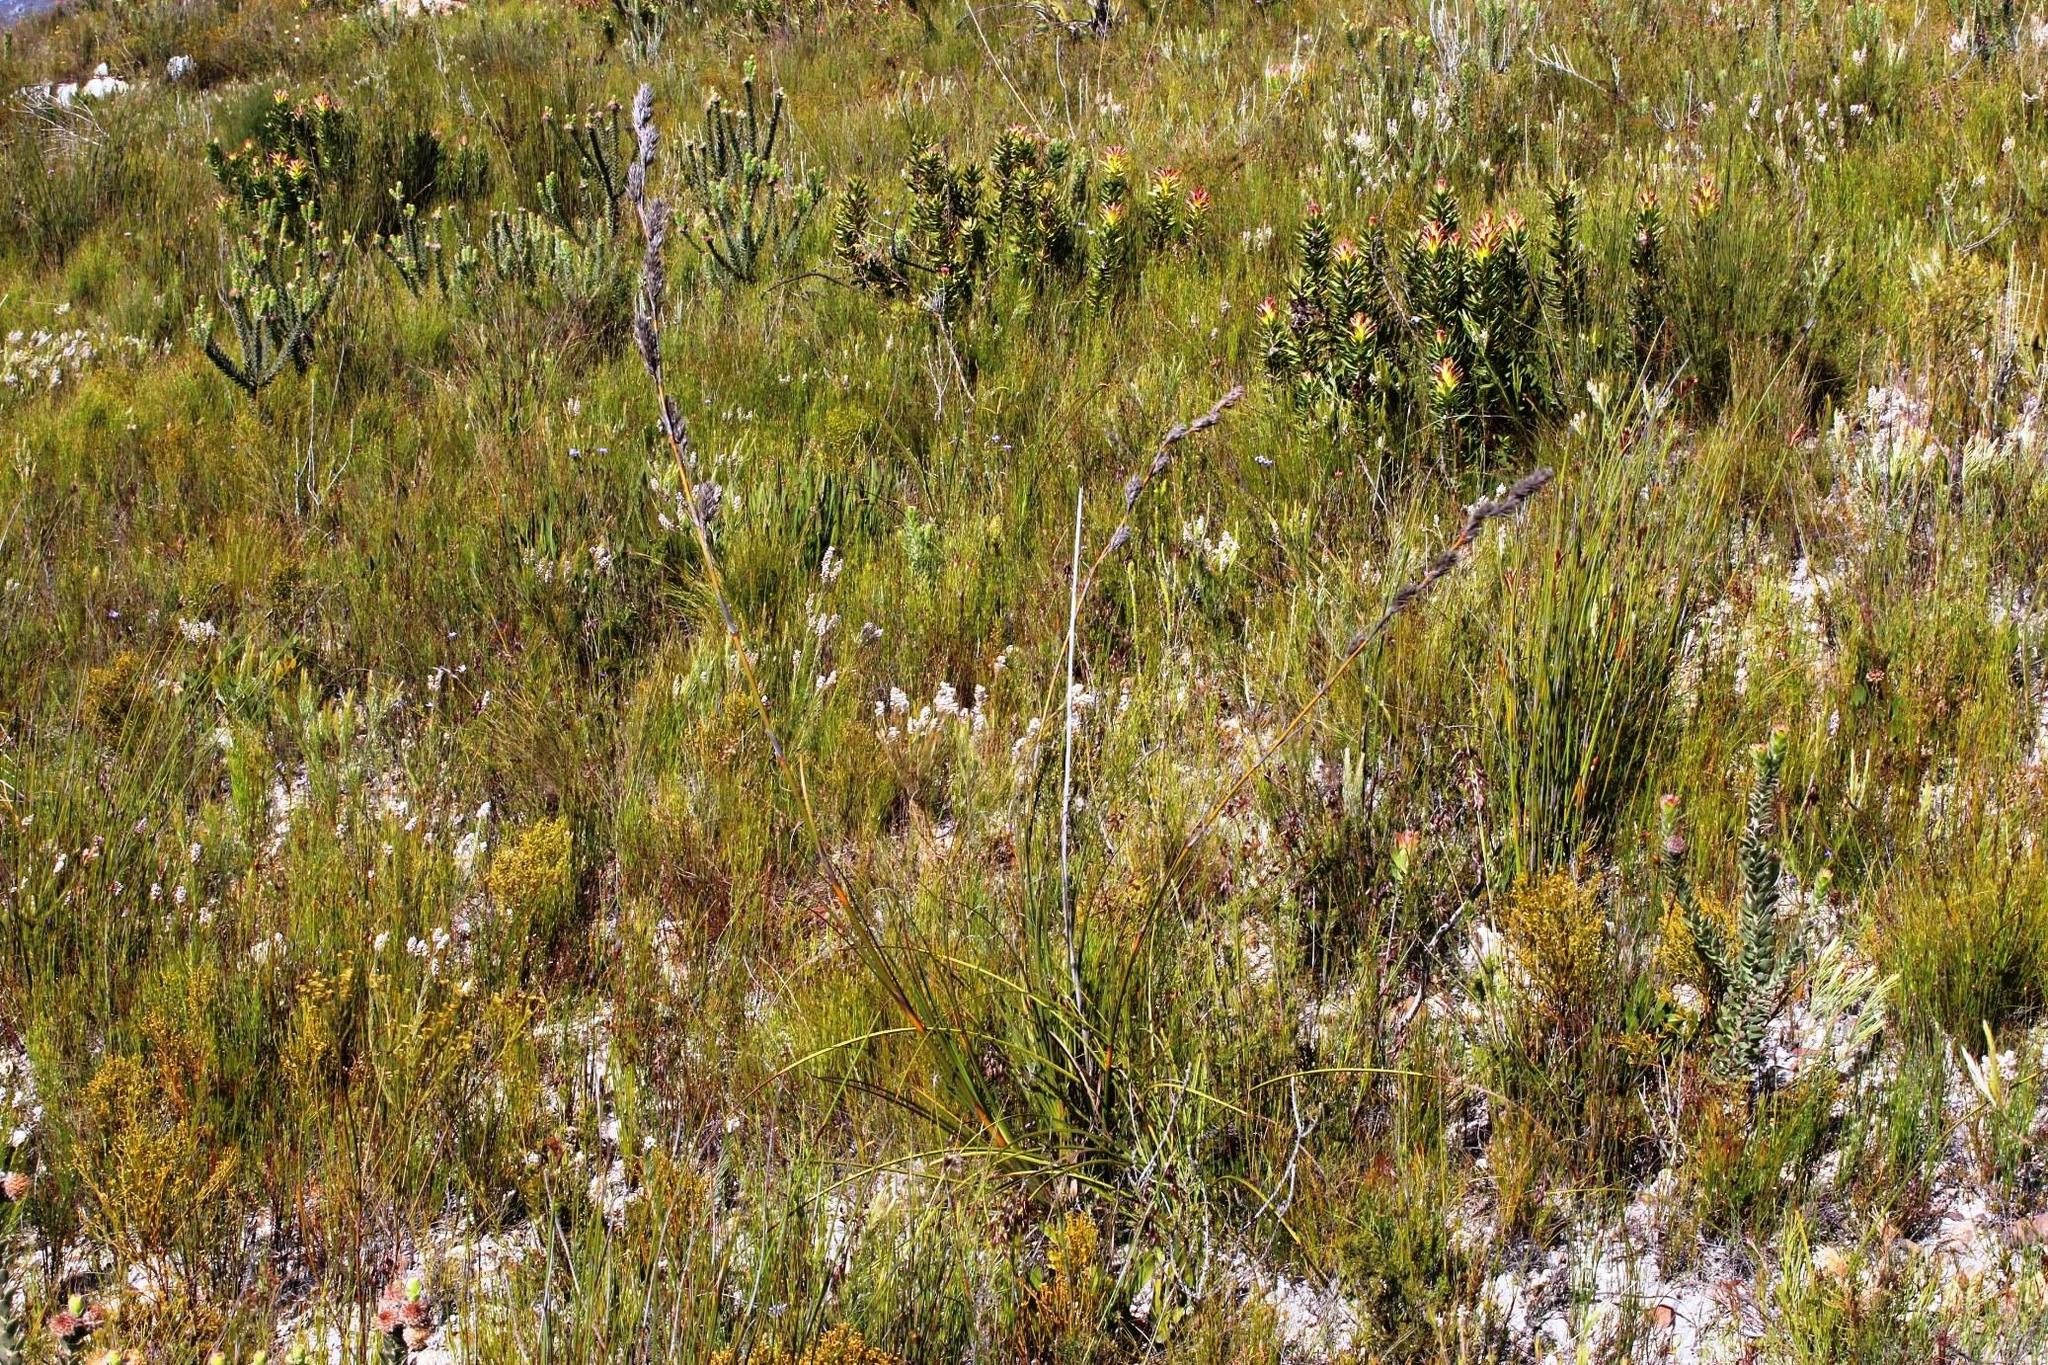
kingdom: Plantae
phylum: Tracheophyta
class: Liliopsida
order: Poales
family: Cyperaceae
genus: Tetraria
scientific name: Tetraria bromoides
